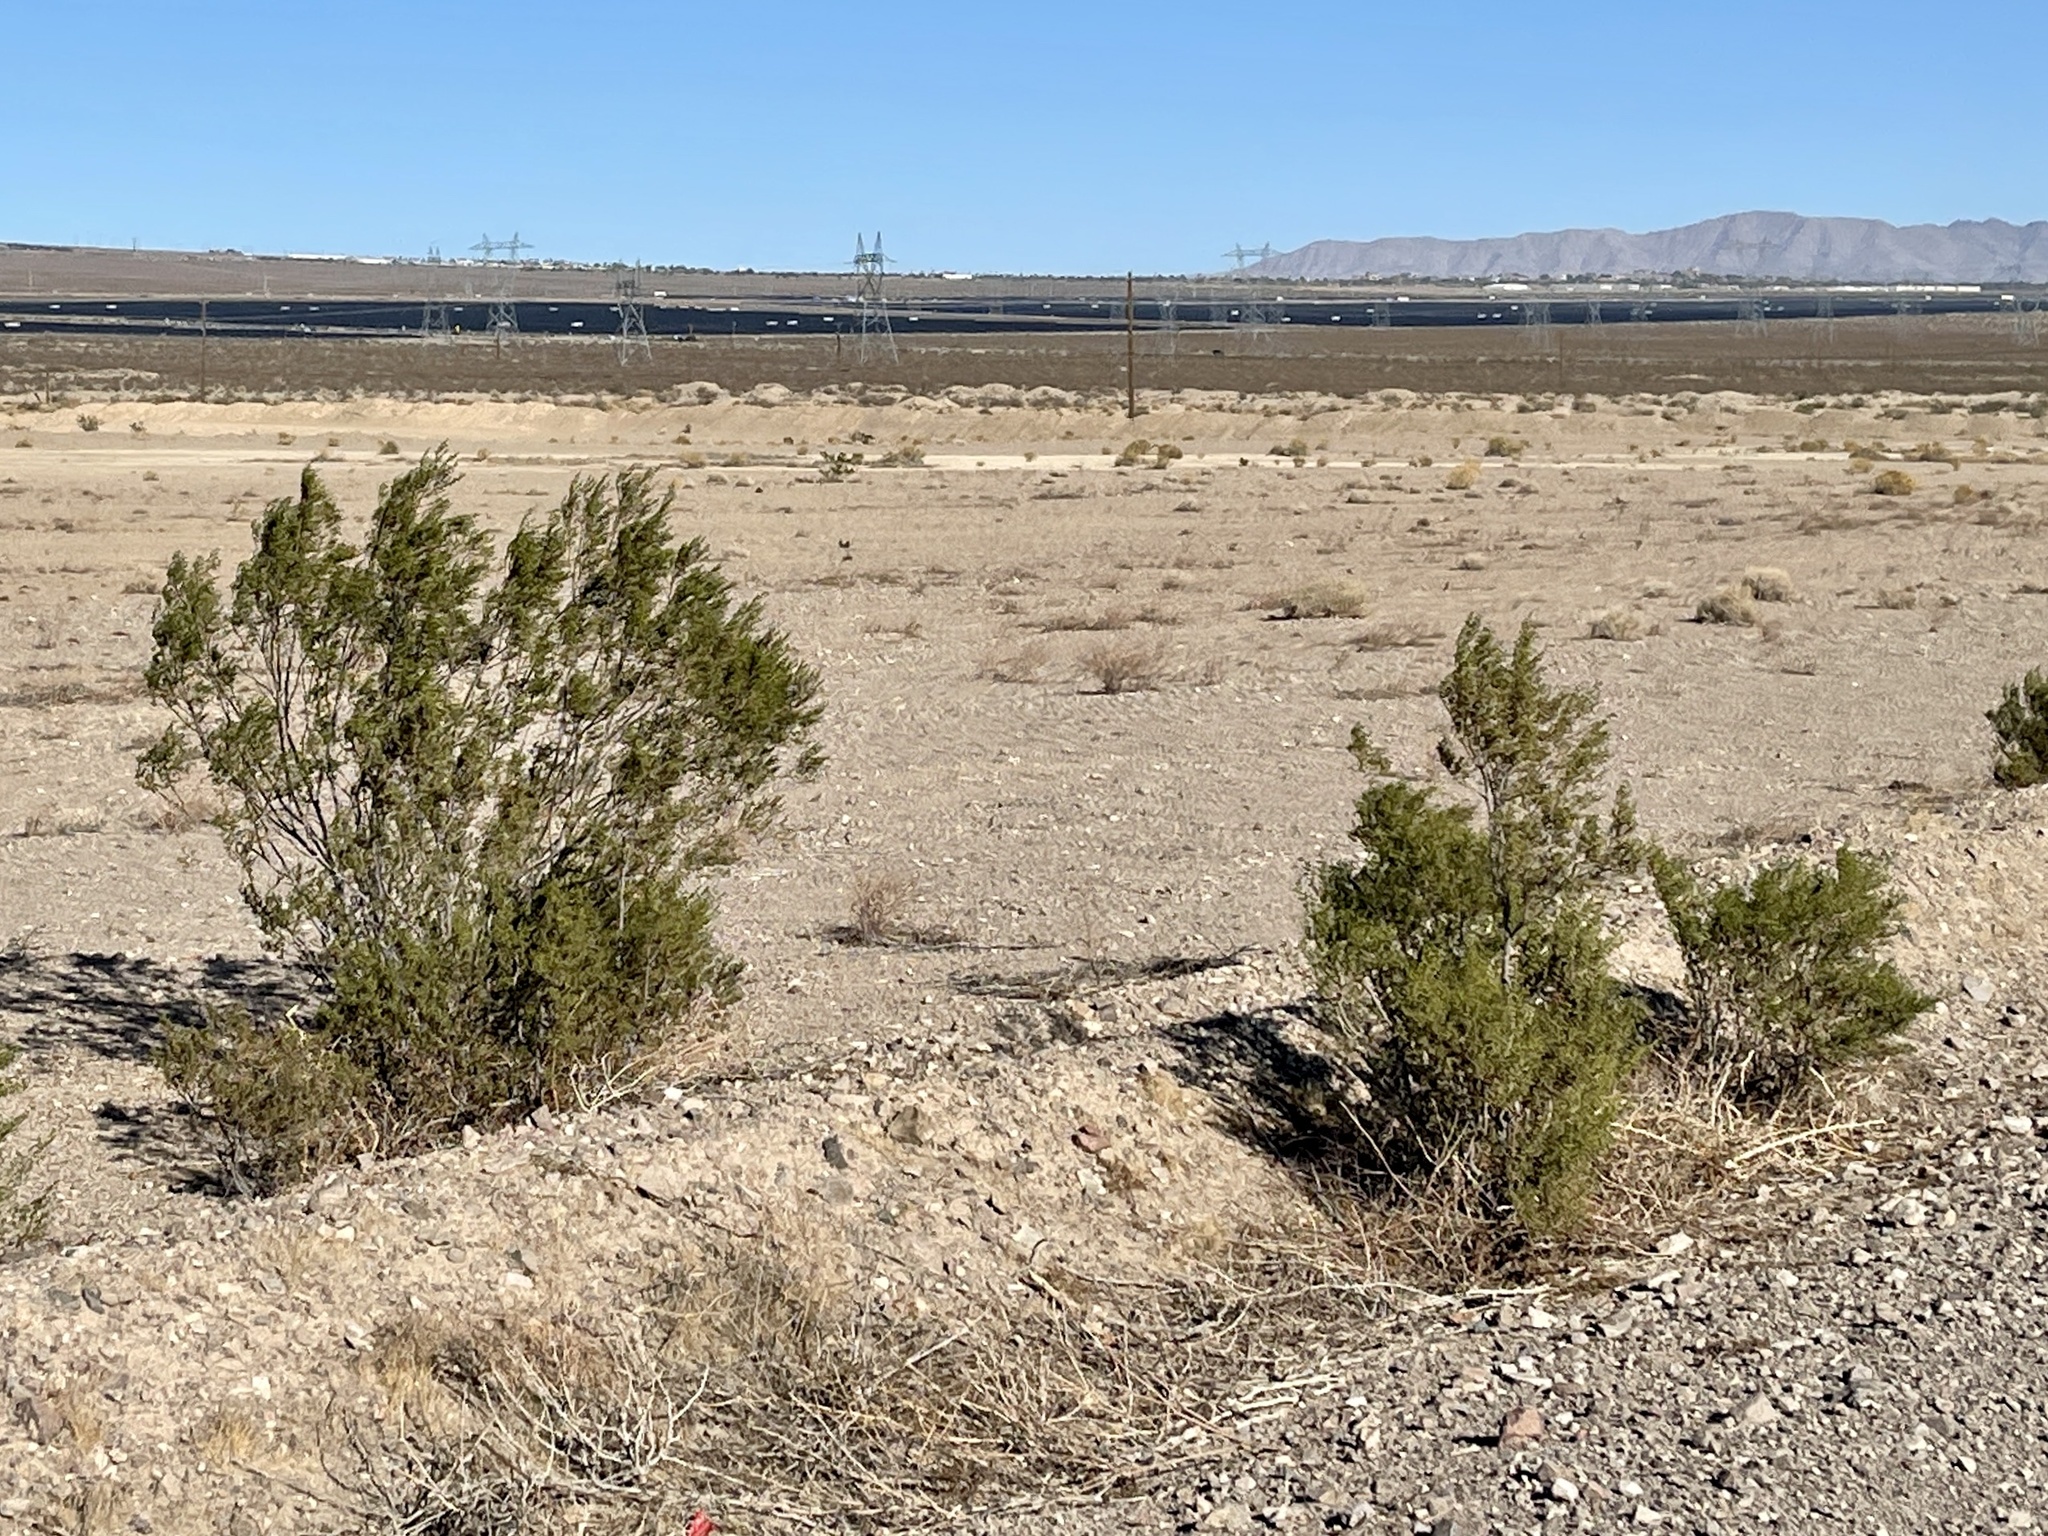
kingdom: Plantae
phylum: Tracheophyta
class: Magnoliopsida
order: Zygophyllales
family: Zygophyllaceae
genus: Larrea
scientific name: Larrea tridentata
